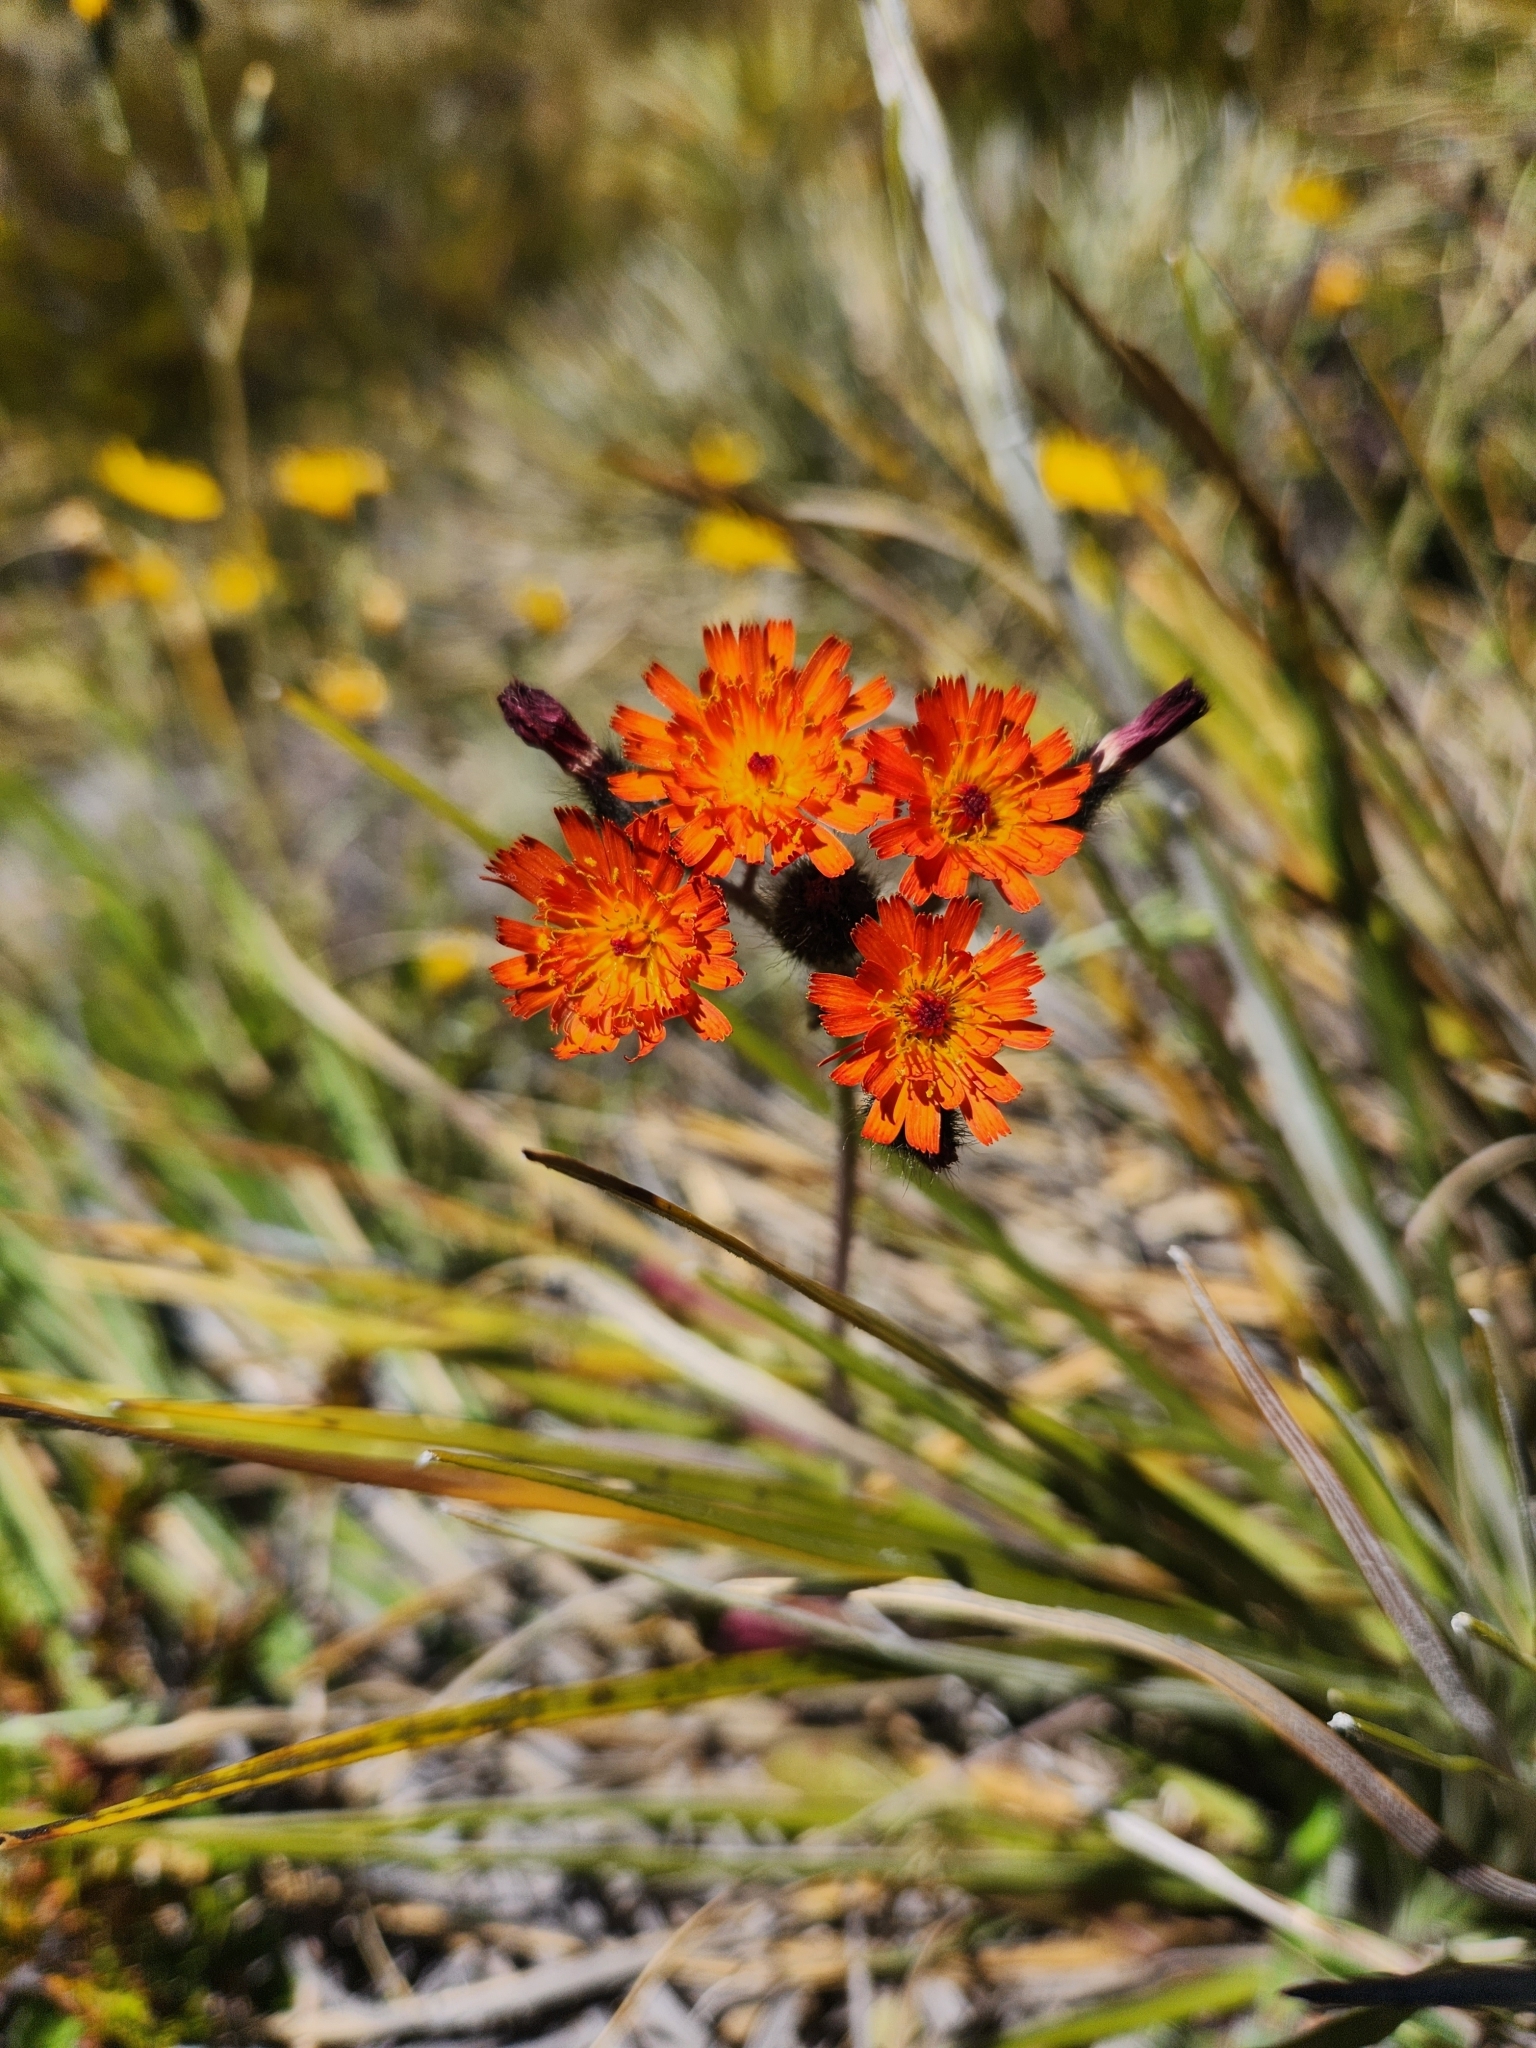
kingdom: Plantae
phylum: Tracheophyta
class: Magnoliopsida
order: Asterales
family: Asteraceae
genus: Pilosella
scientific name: Pilosella aurantiaca
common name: Fox-and-cubs
